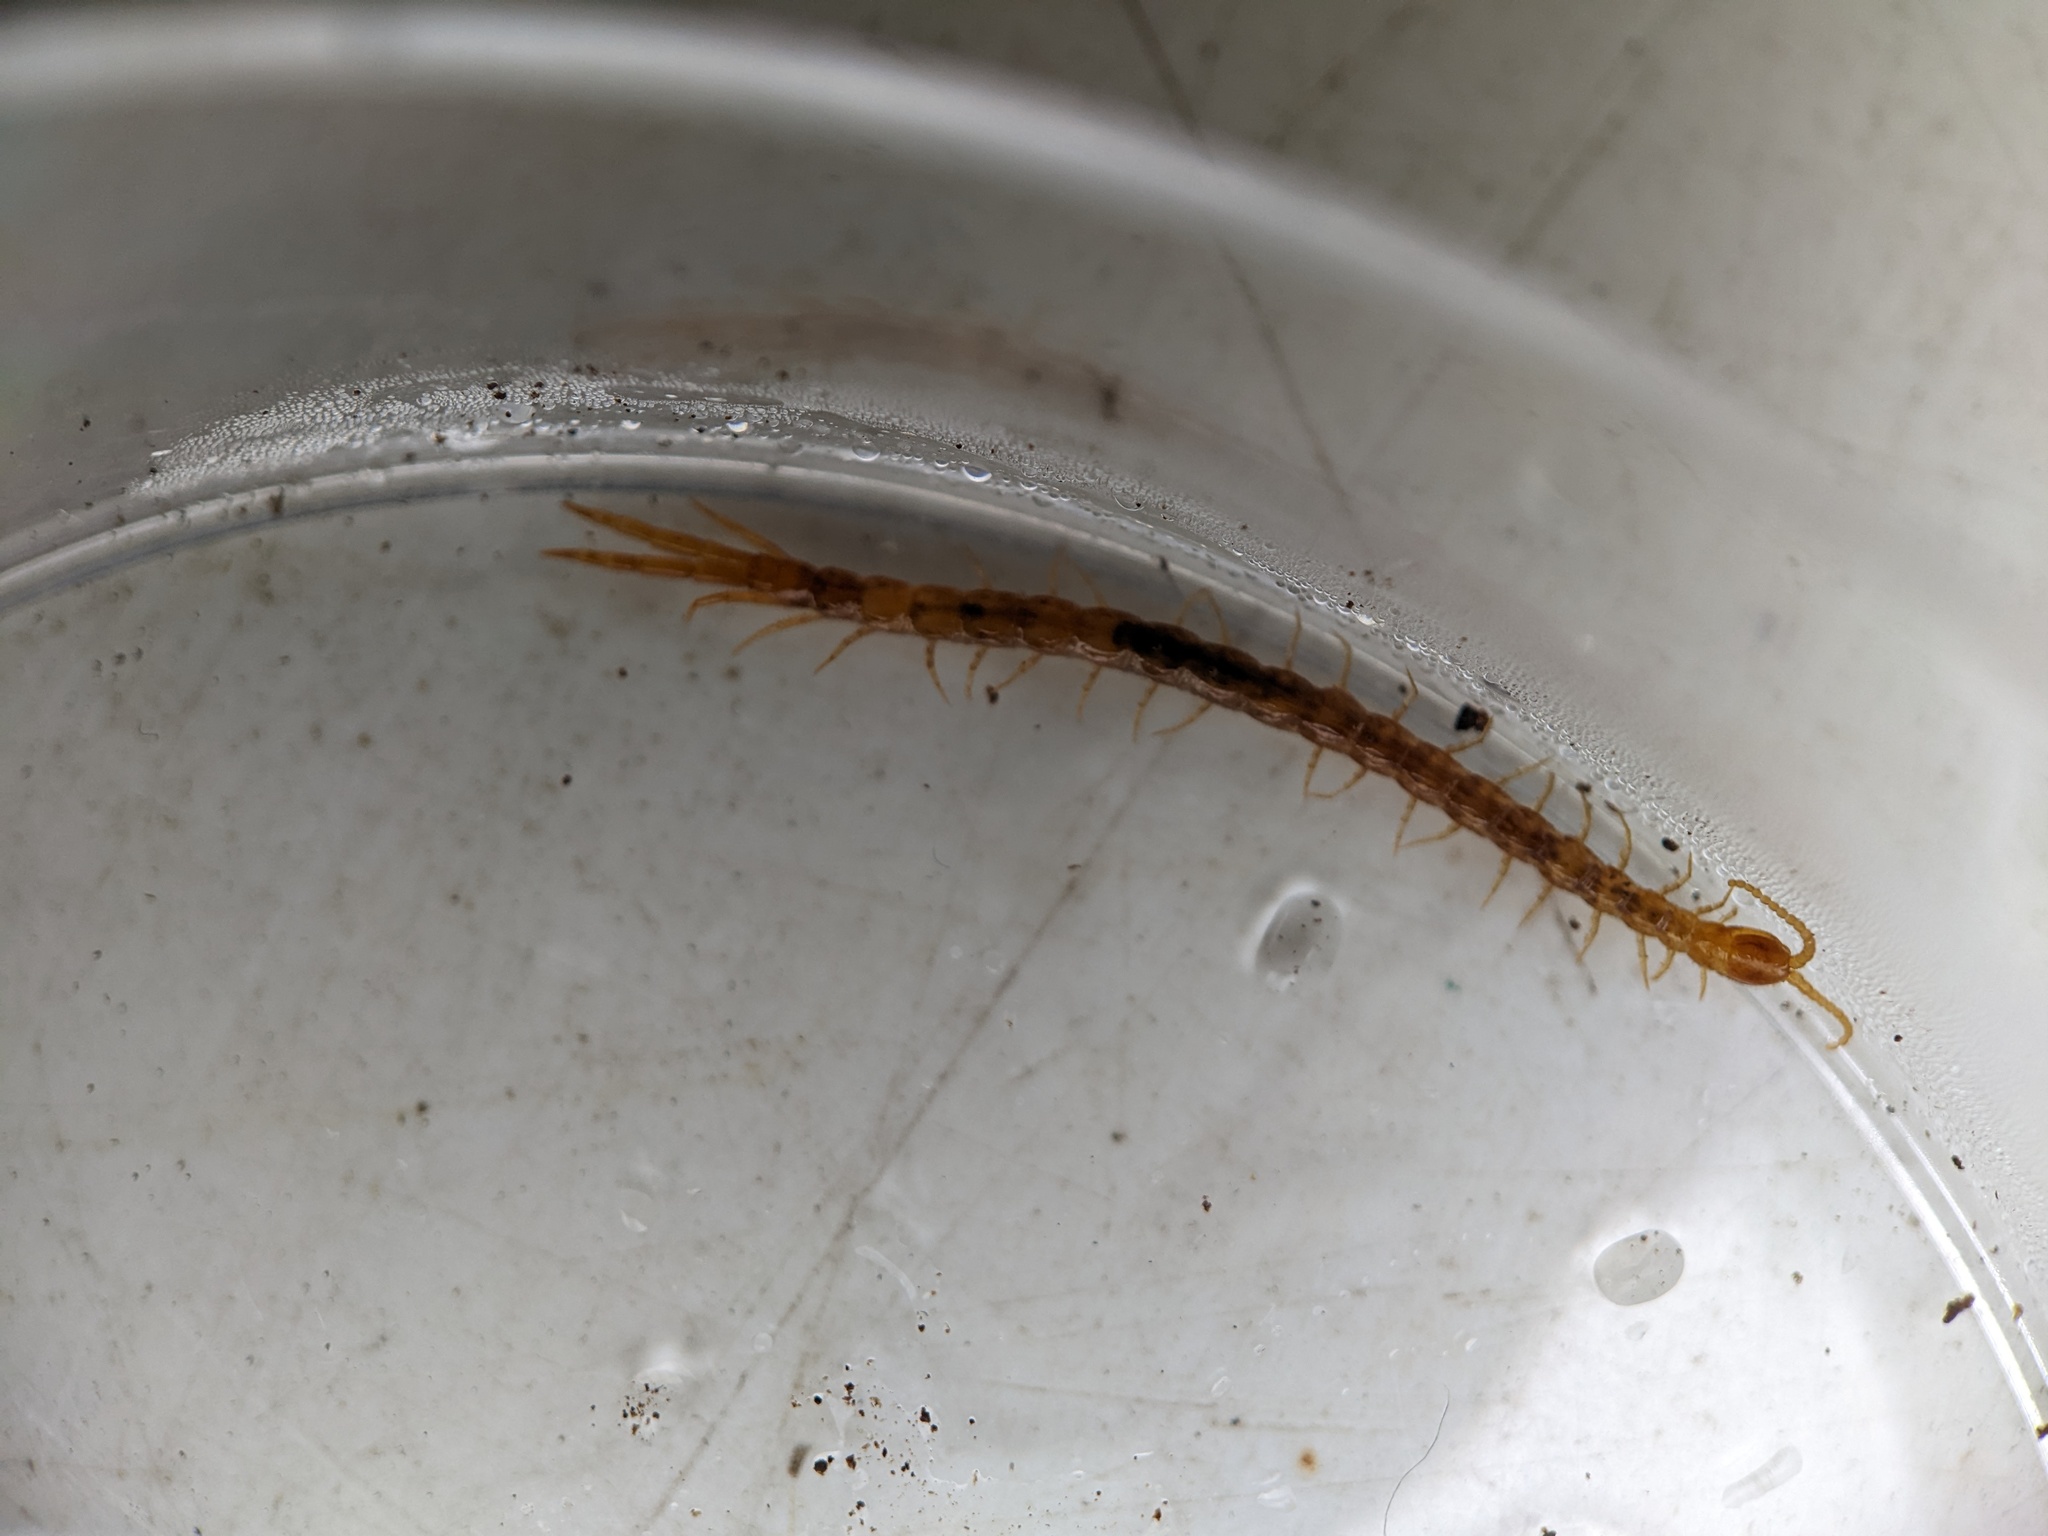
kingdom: Animalia
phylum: Arthropoda
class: Chilopoda
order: Scolopendromorpha
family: Cryptopidae
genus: Cryptops
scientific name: Cryptops
